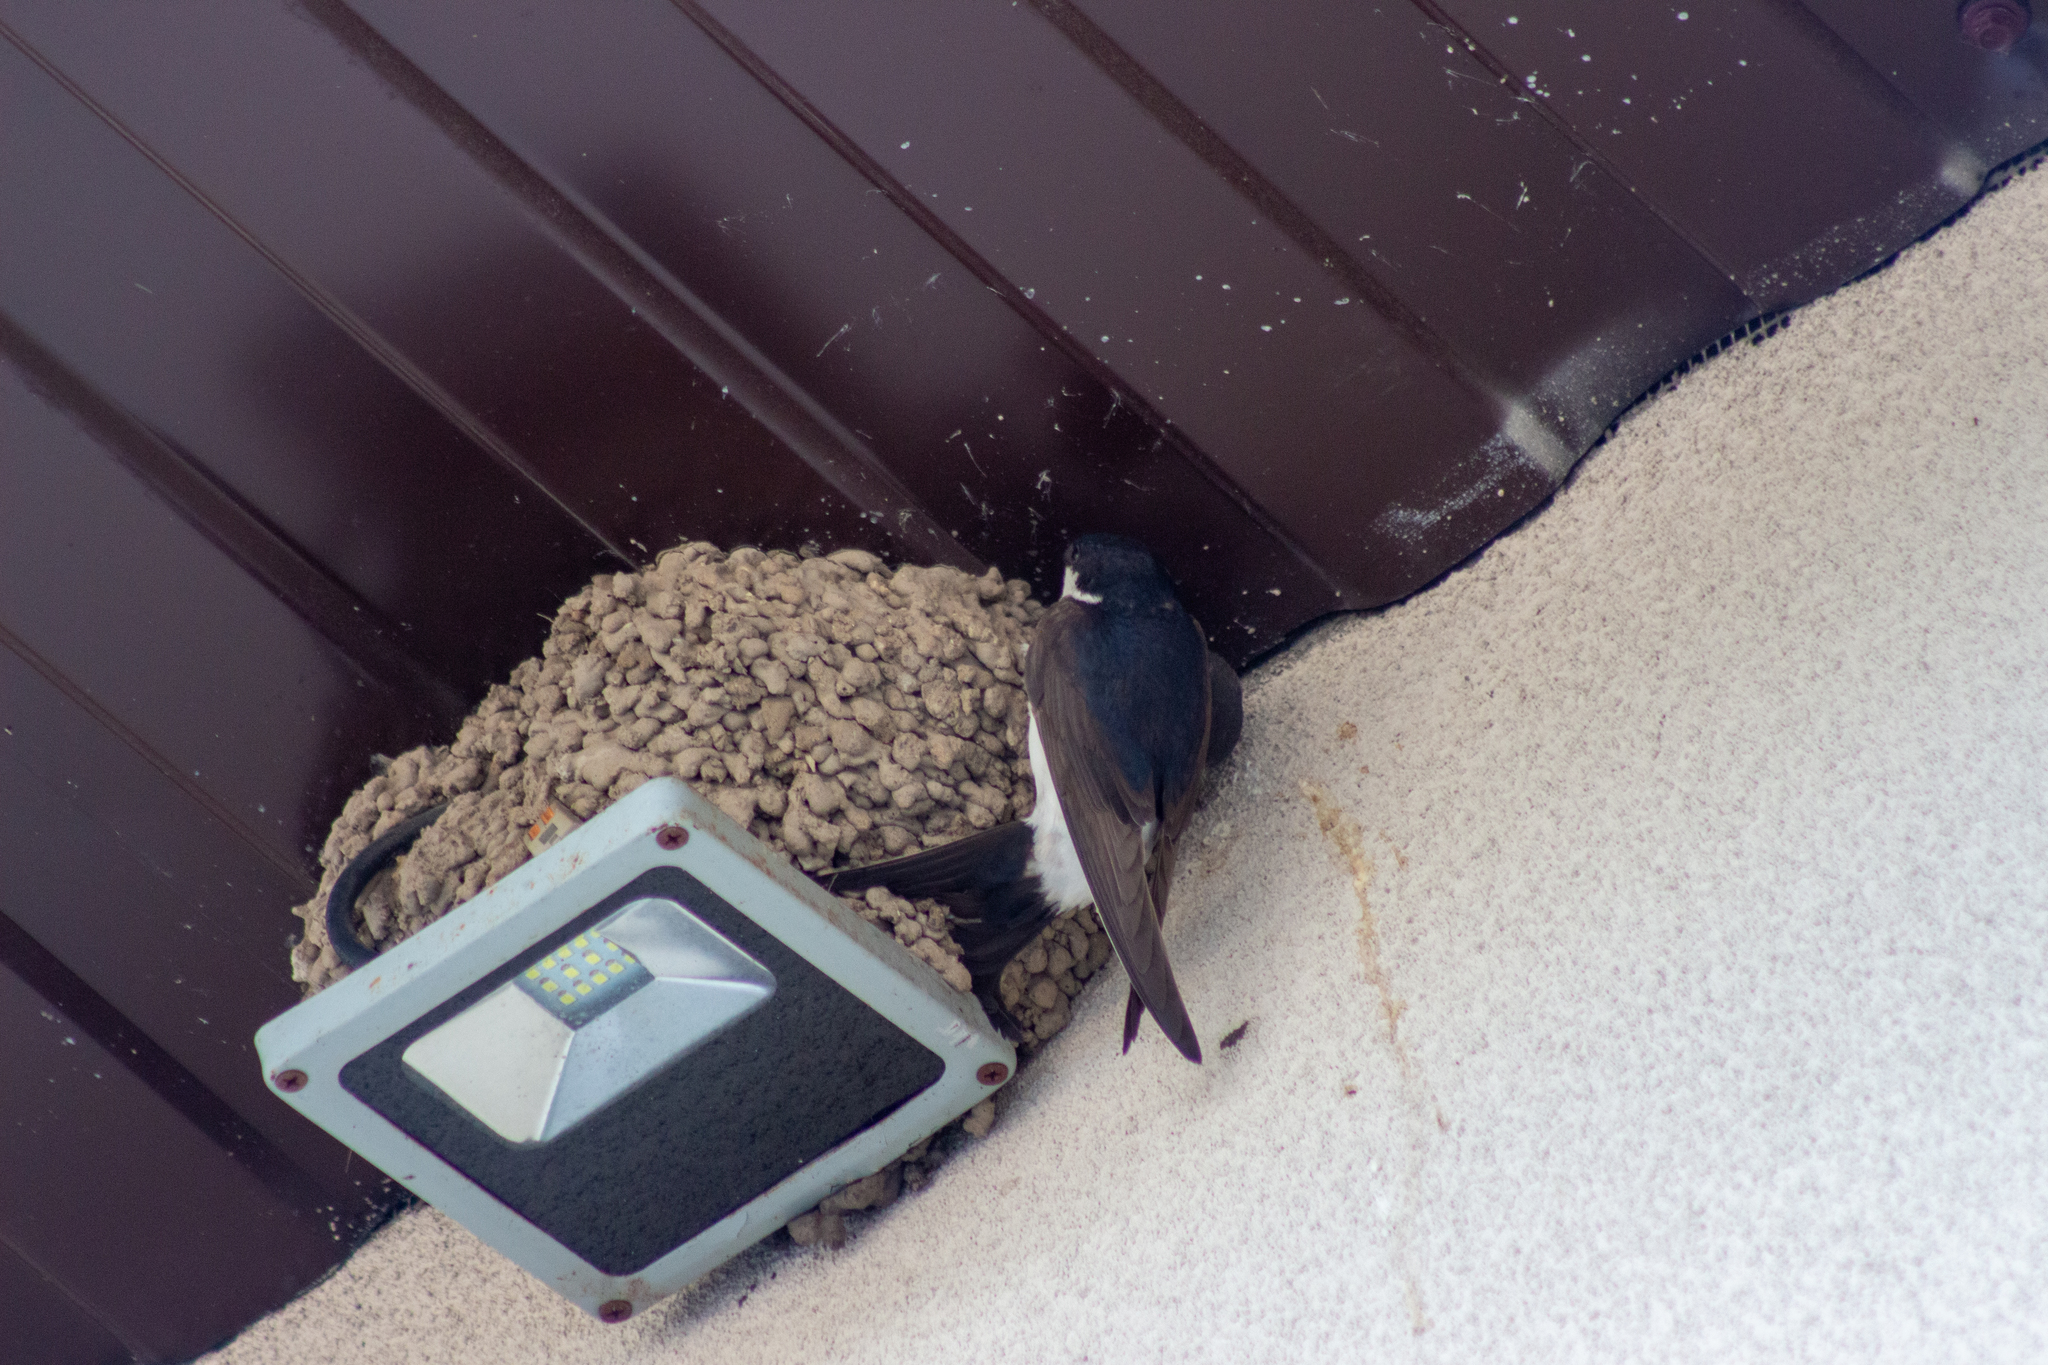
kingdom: Animalia
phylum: Chordata
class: Aves
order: Passeriformes
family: Hirundinidae
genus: Delichon
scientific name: Delichon urbicum
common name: Common house martin
